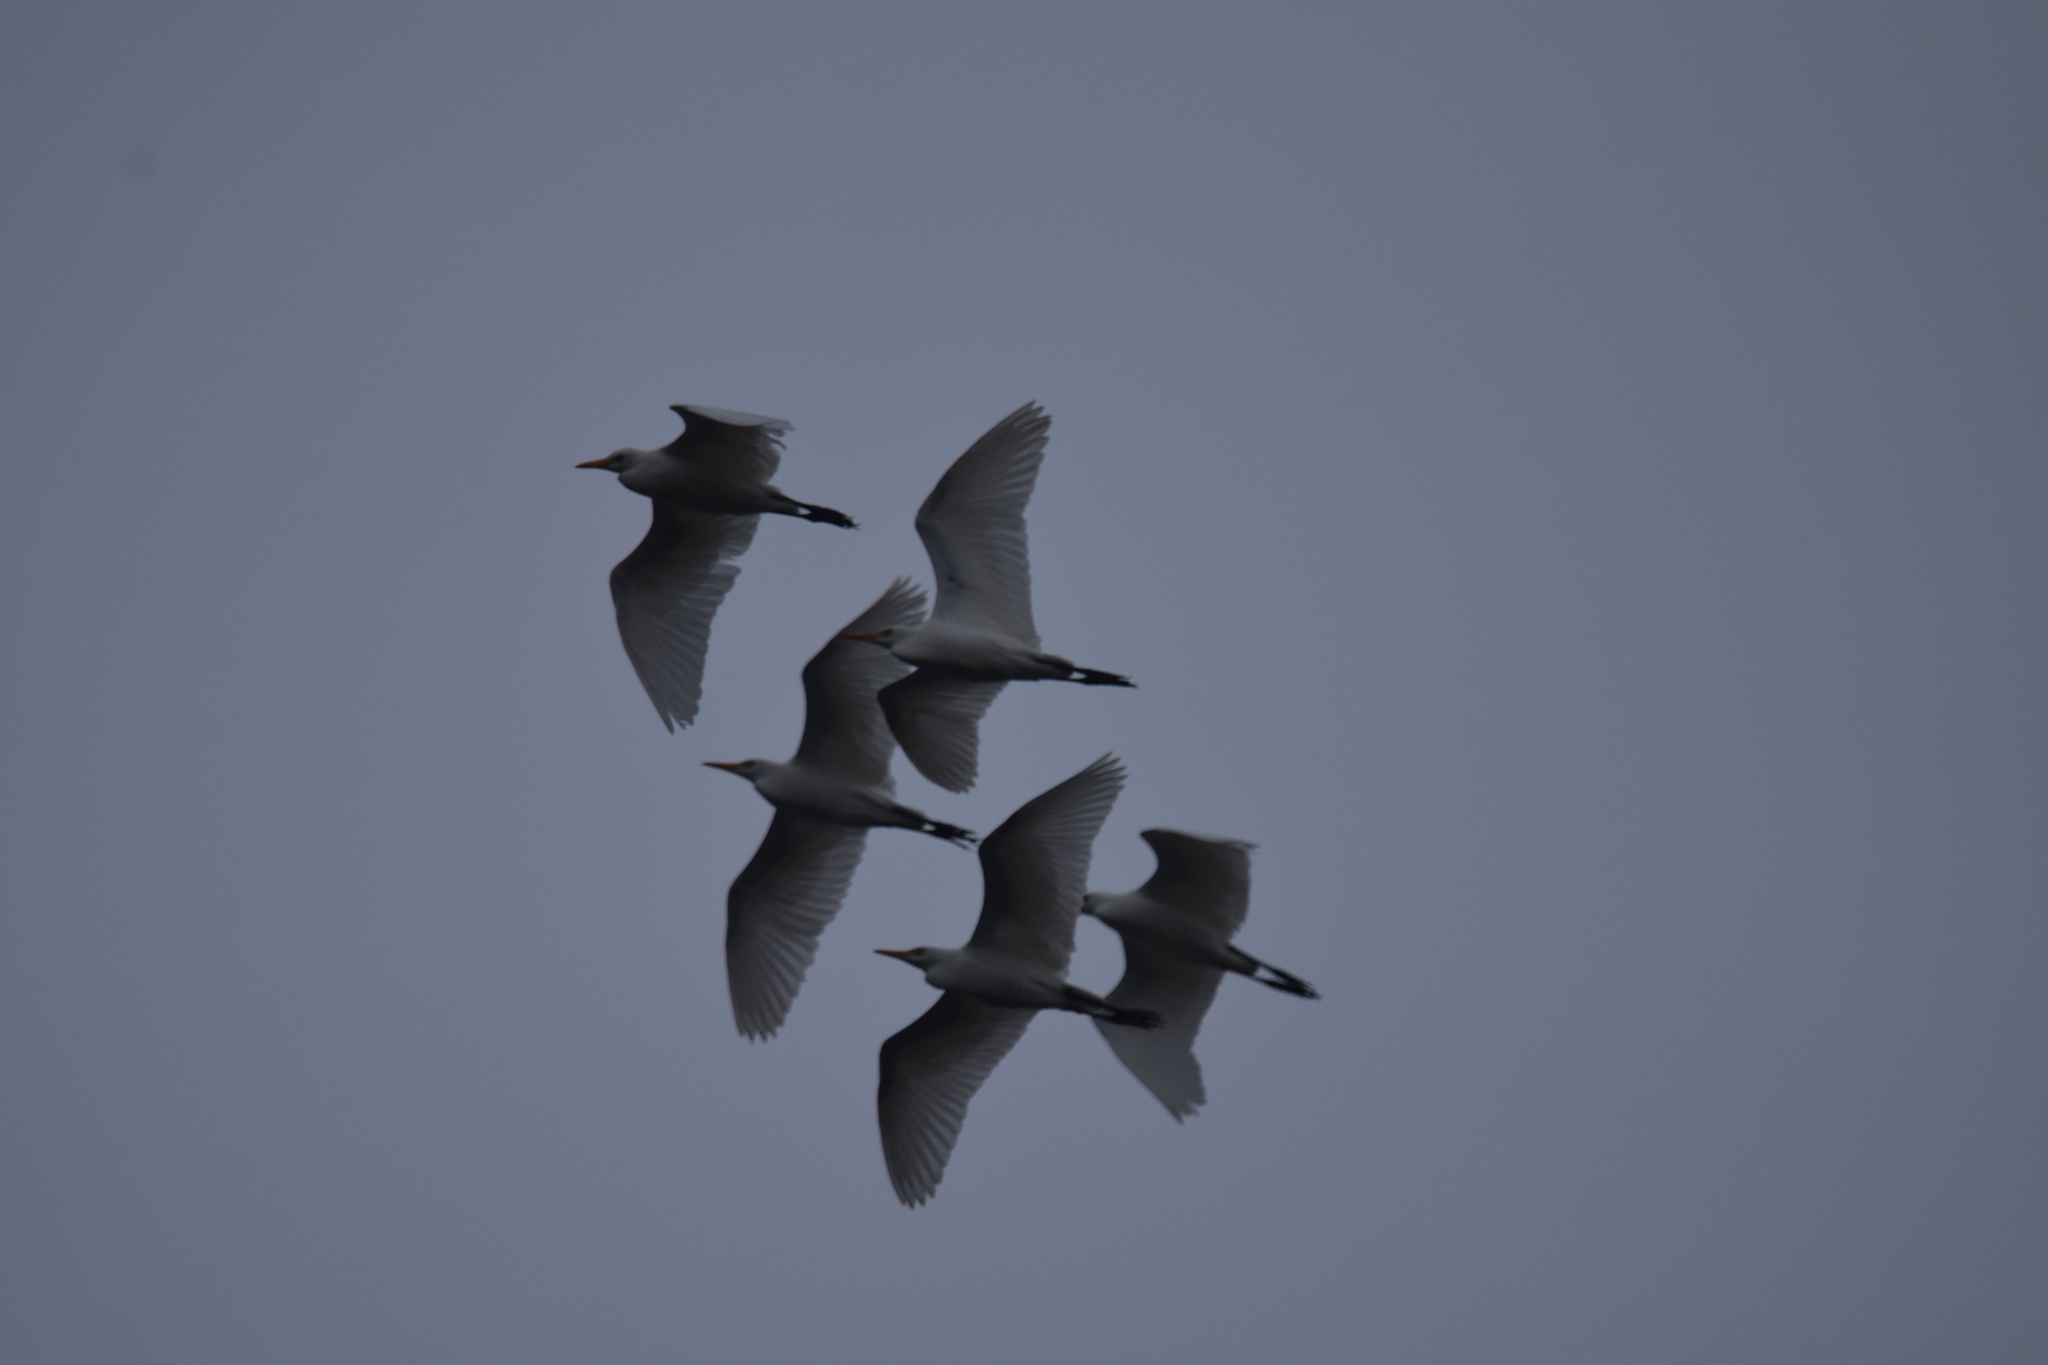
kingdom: Animalia
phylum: Chordata
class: Aves
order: Pelecaniformes
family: Ardeidae
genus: Bubulcus
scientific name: Bubulcus ibis
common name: Cattle egret
